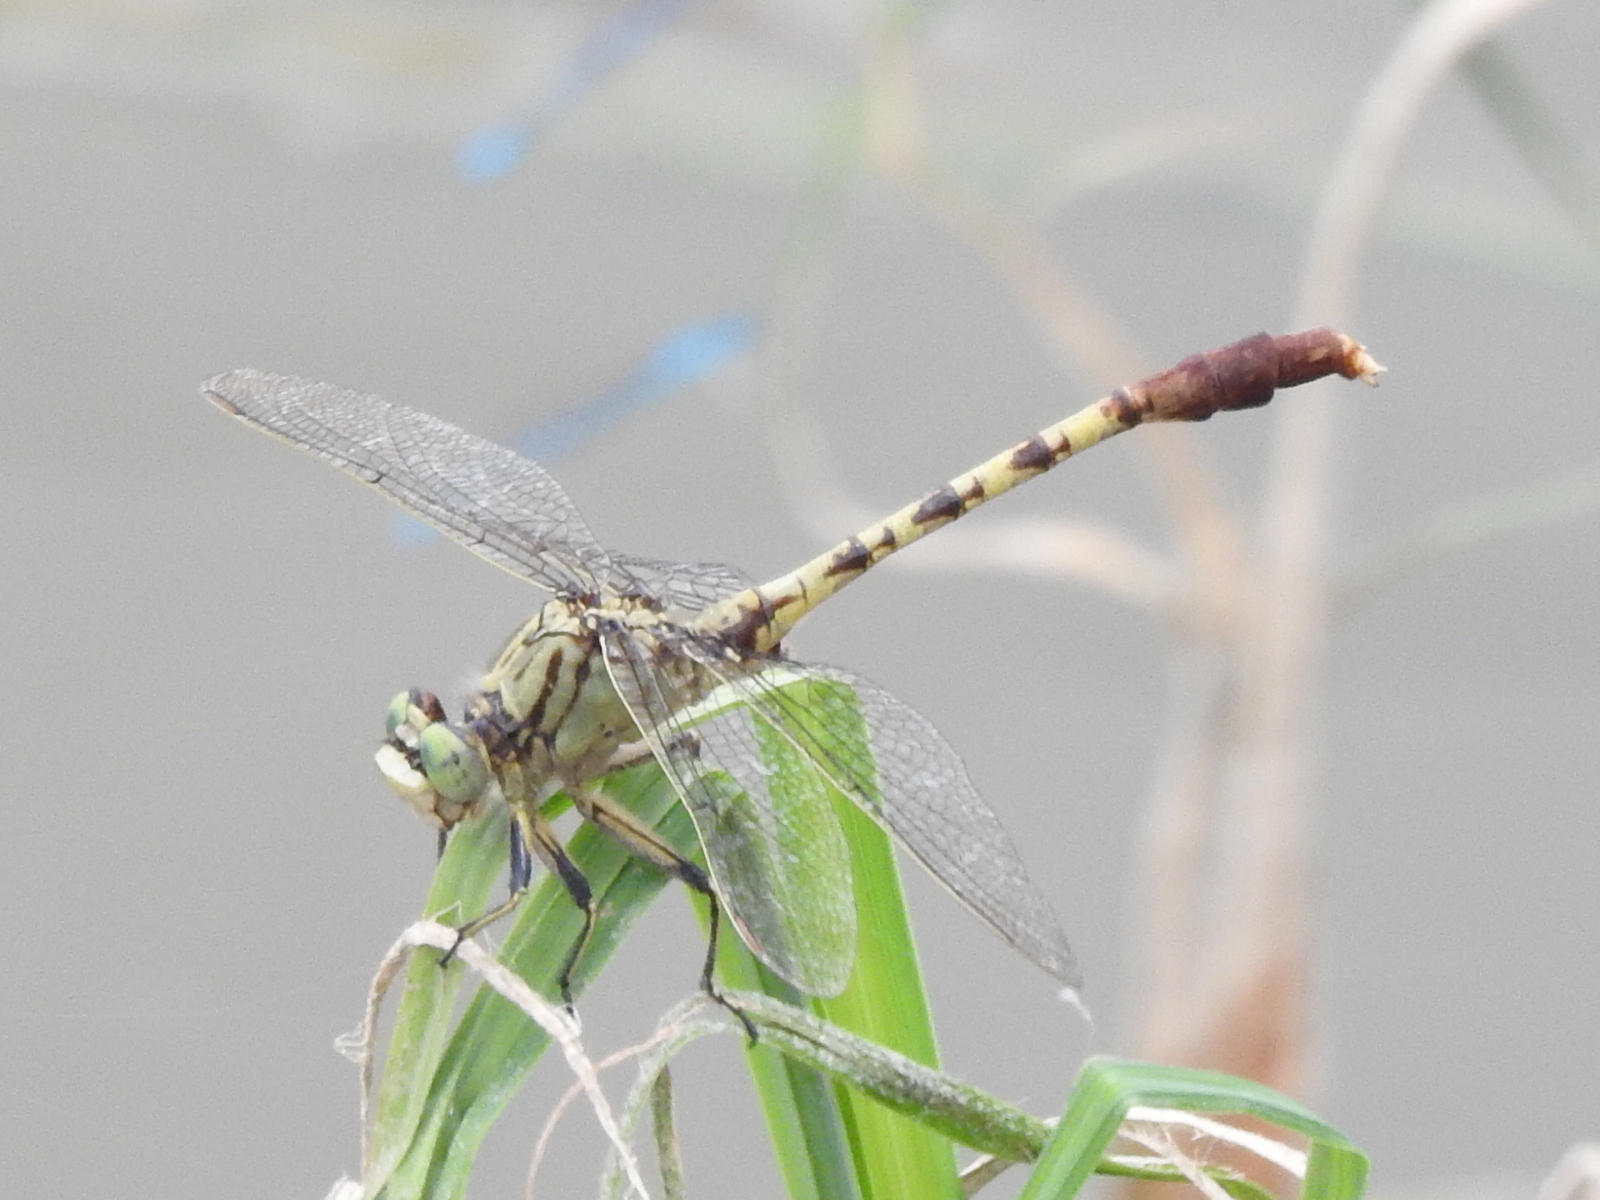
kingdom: Animalia
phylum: Arthropoda
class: Insecta
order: Odonata
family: Gomphidae
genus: Arigomphus
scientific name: Arigomphus submedianus
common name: Jade clubtail
